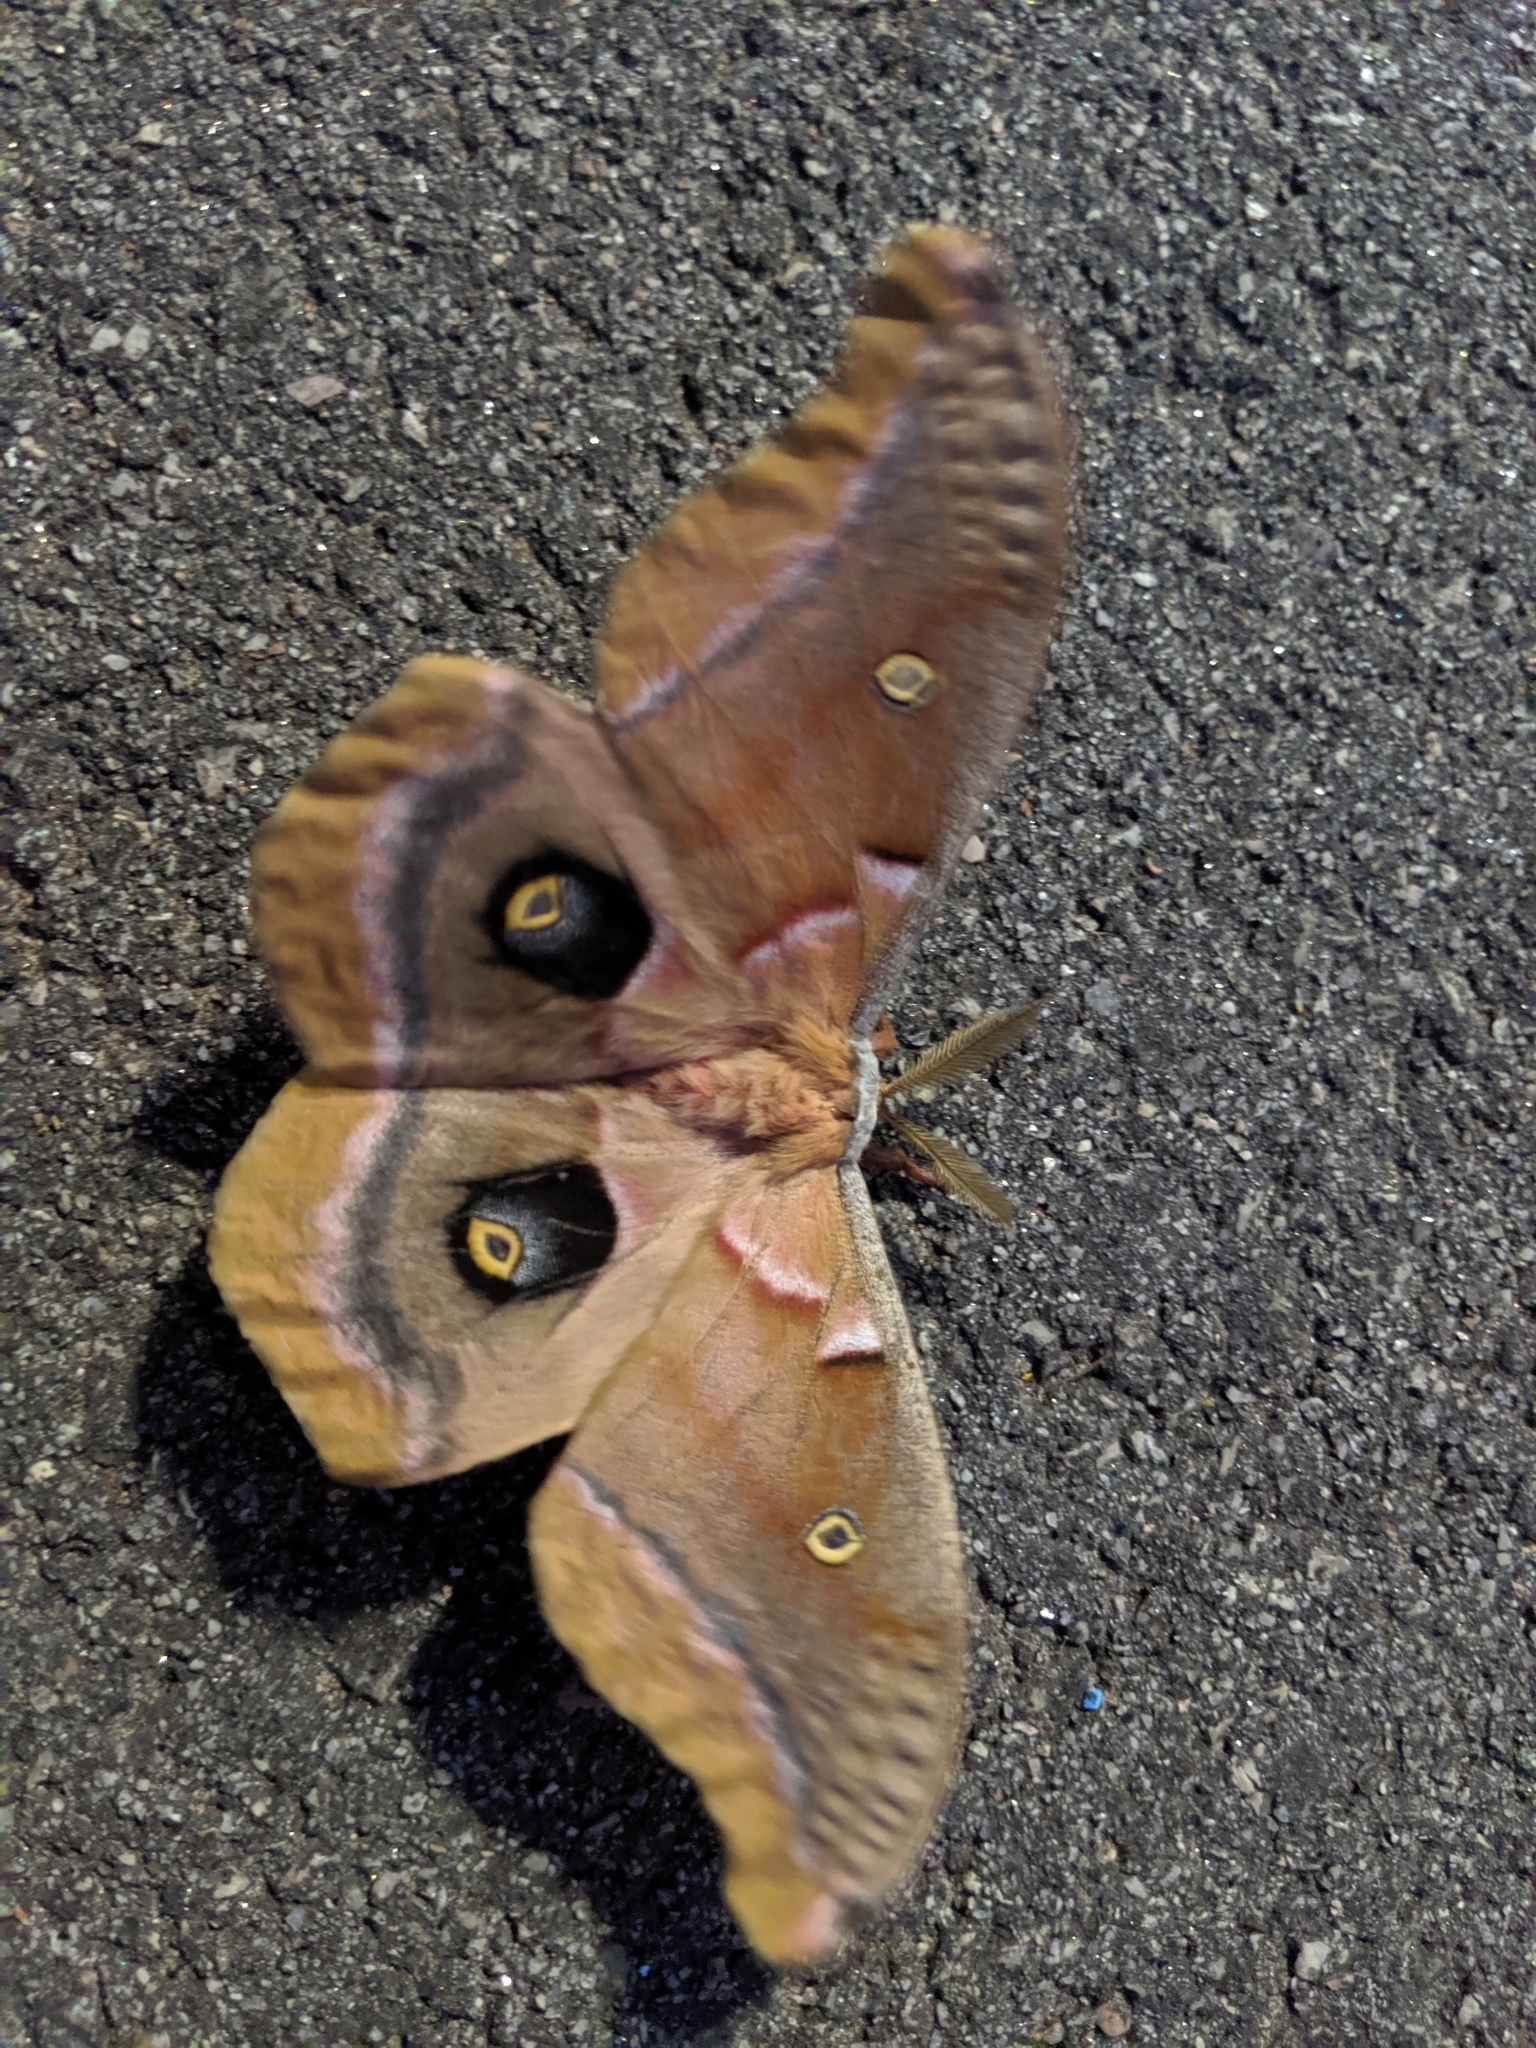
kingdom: Animalia
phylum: Arthropoda
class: Insecta
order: Lepidoptera
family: Saturniidae
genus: Antheraea
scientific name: Antheraea polyphemus
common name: Polyphemus moth
